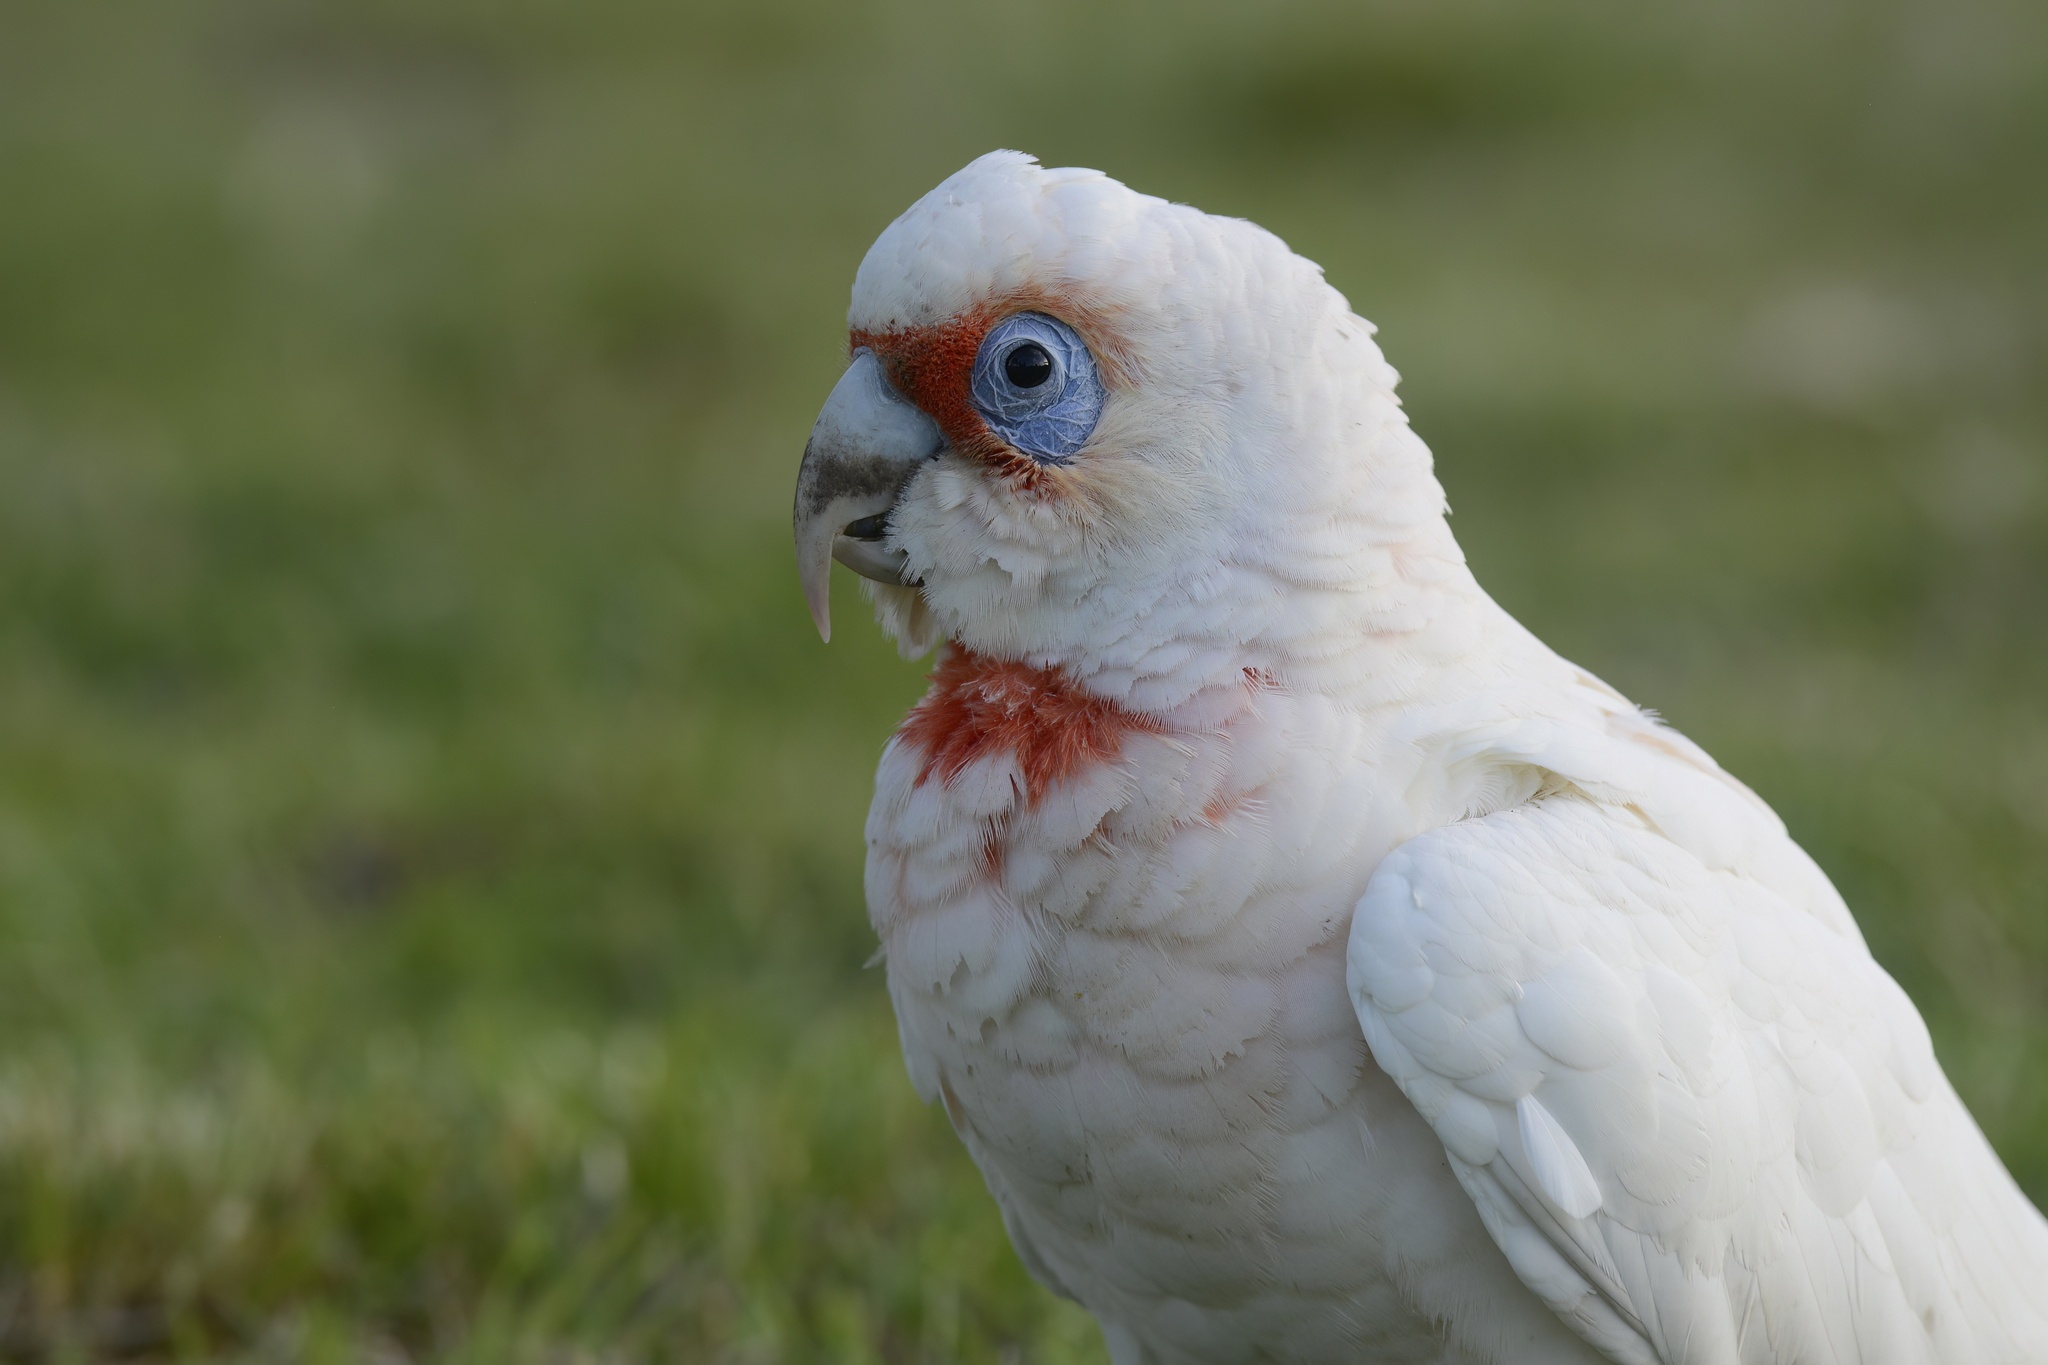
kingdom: Animalia
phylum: Chordata
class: Aves
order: Psittaciformes
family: Psittacidae
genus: Cacatua
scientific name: Cacatua tenuirostris
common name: Long-billed corella
